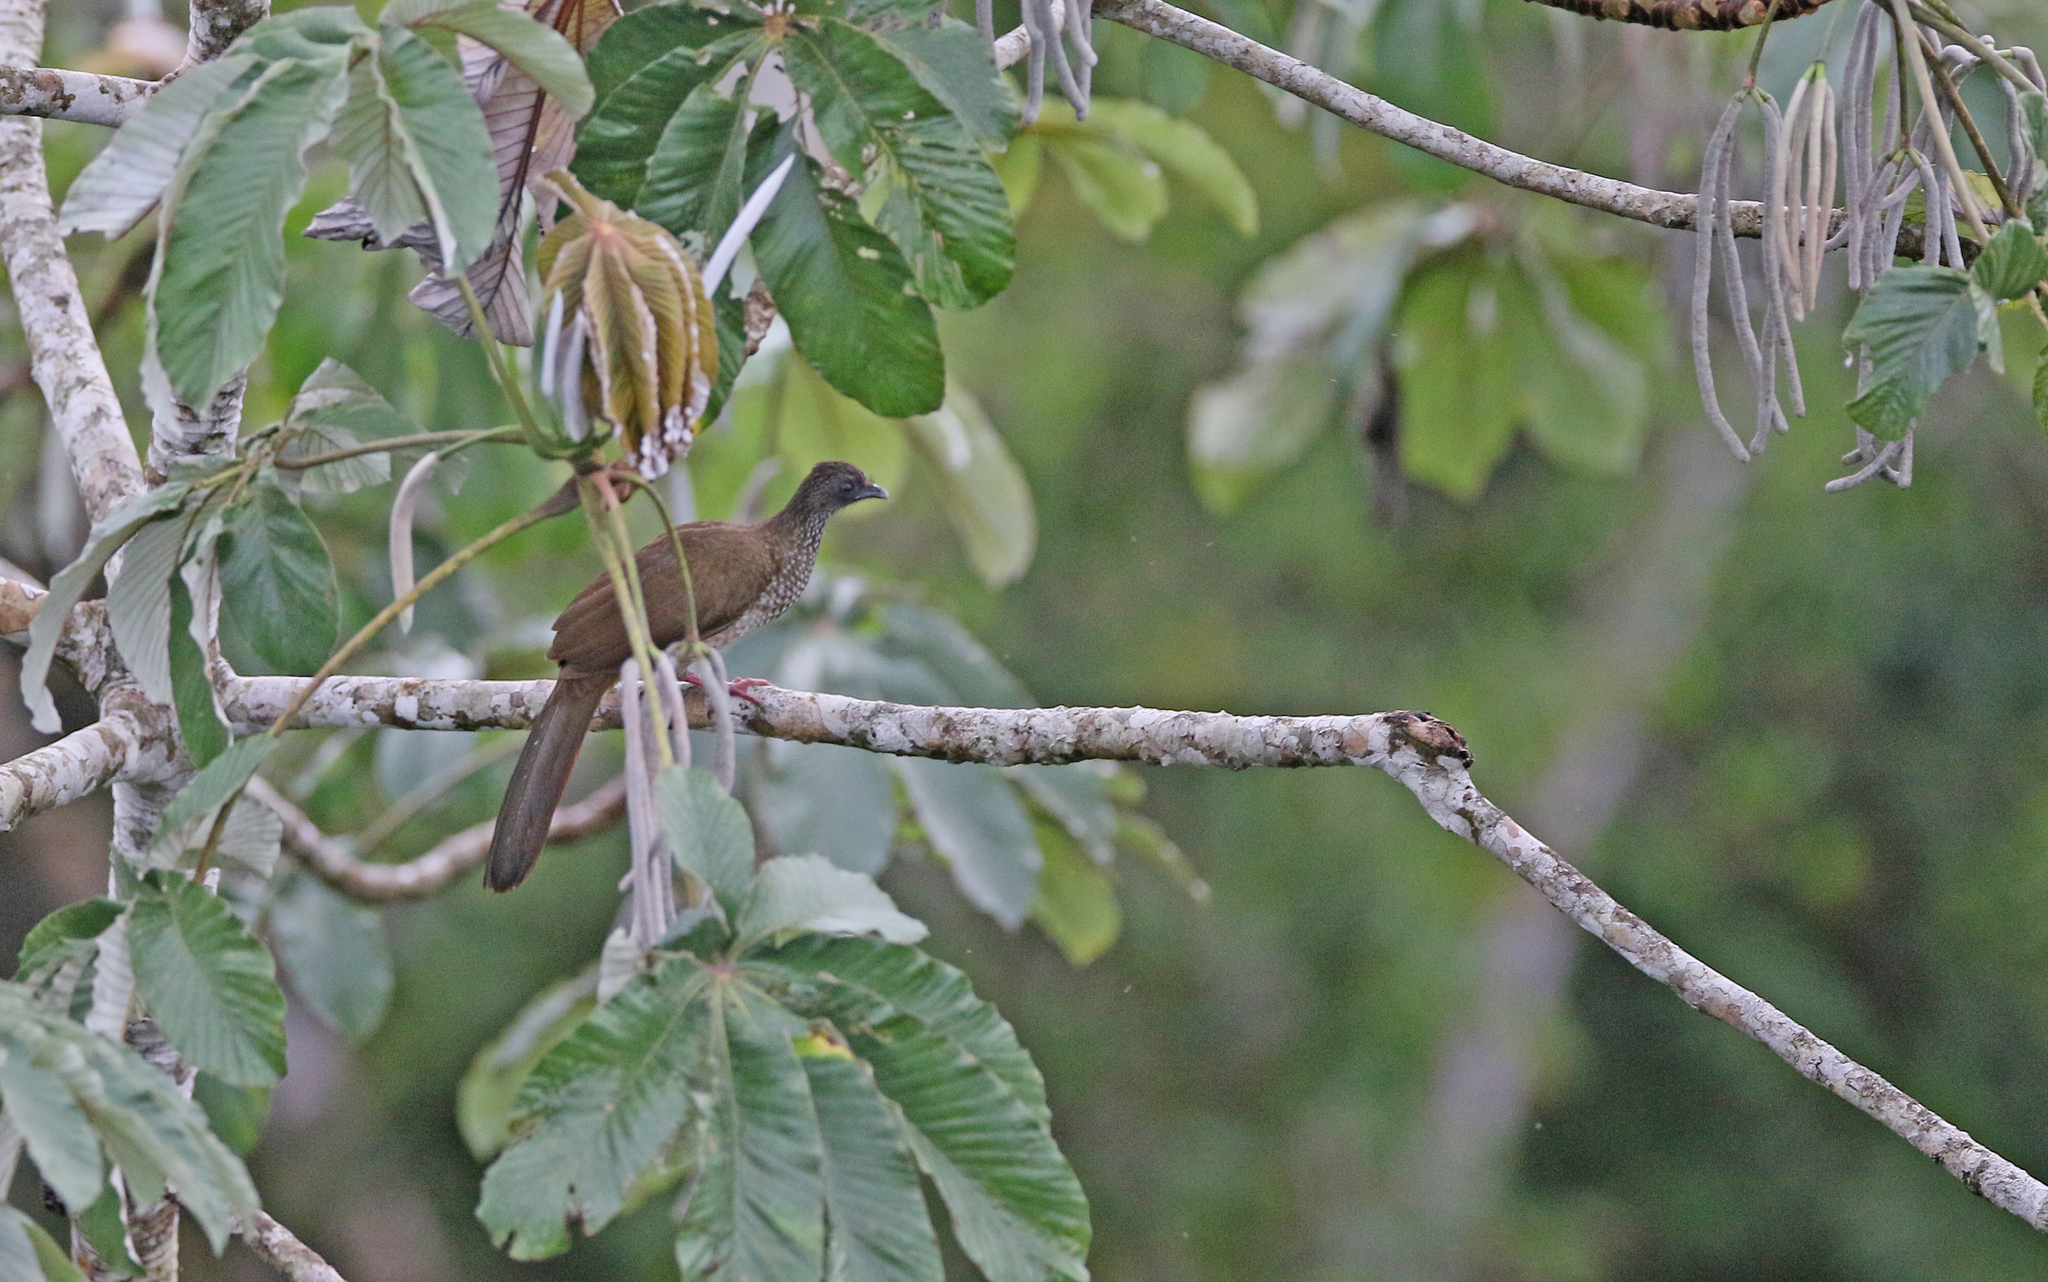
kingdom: Animalia
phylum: Chordata
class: Aves
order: Galliformes
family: Cracidae
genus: Ortalis
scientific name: Ortalis guttata
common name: Speckled chachalaca
